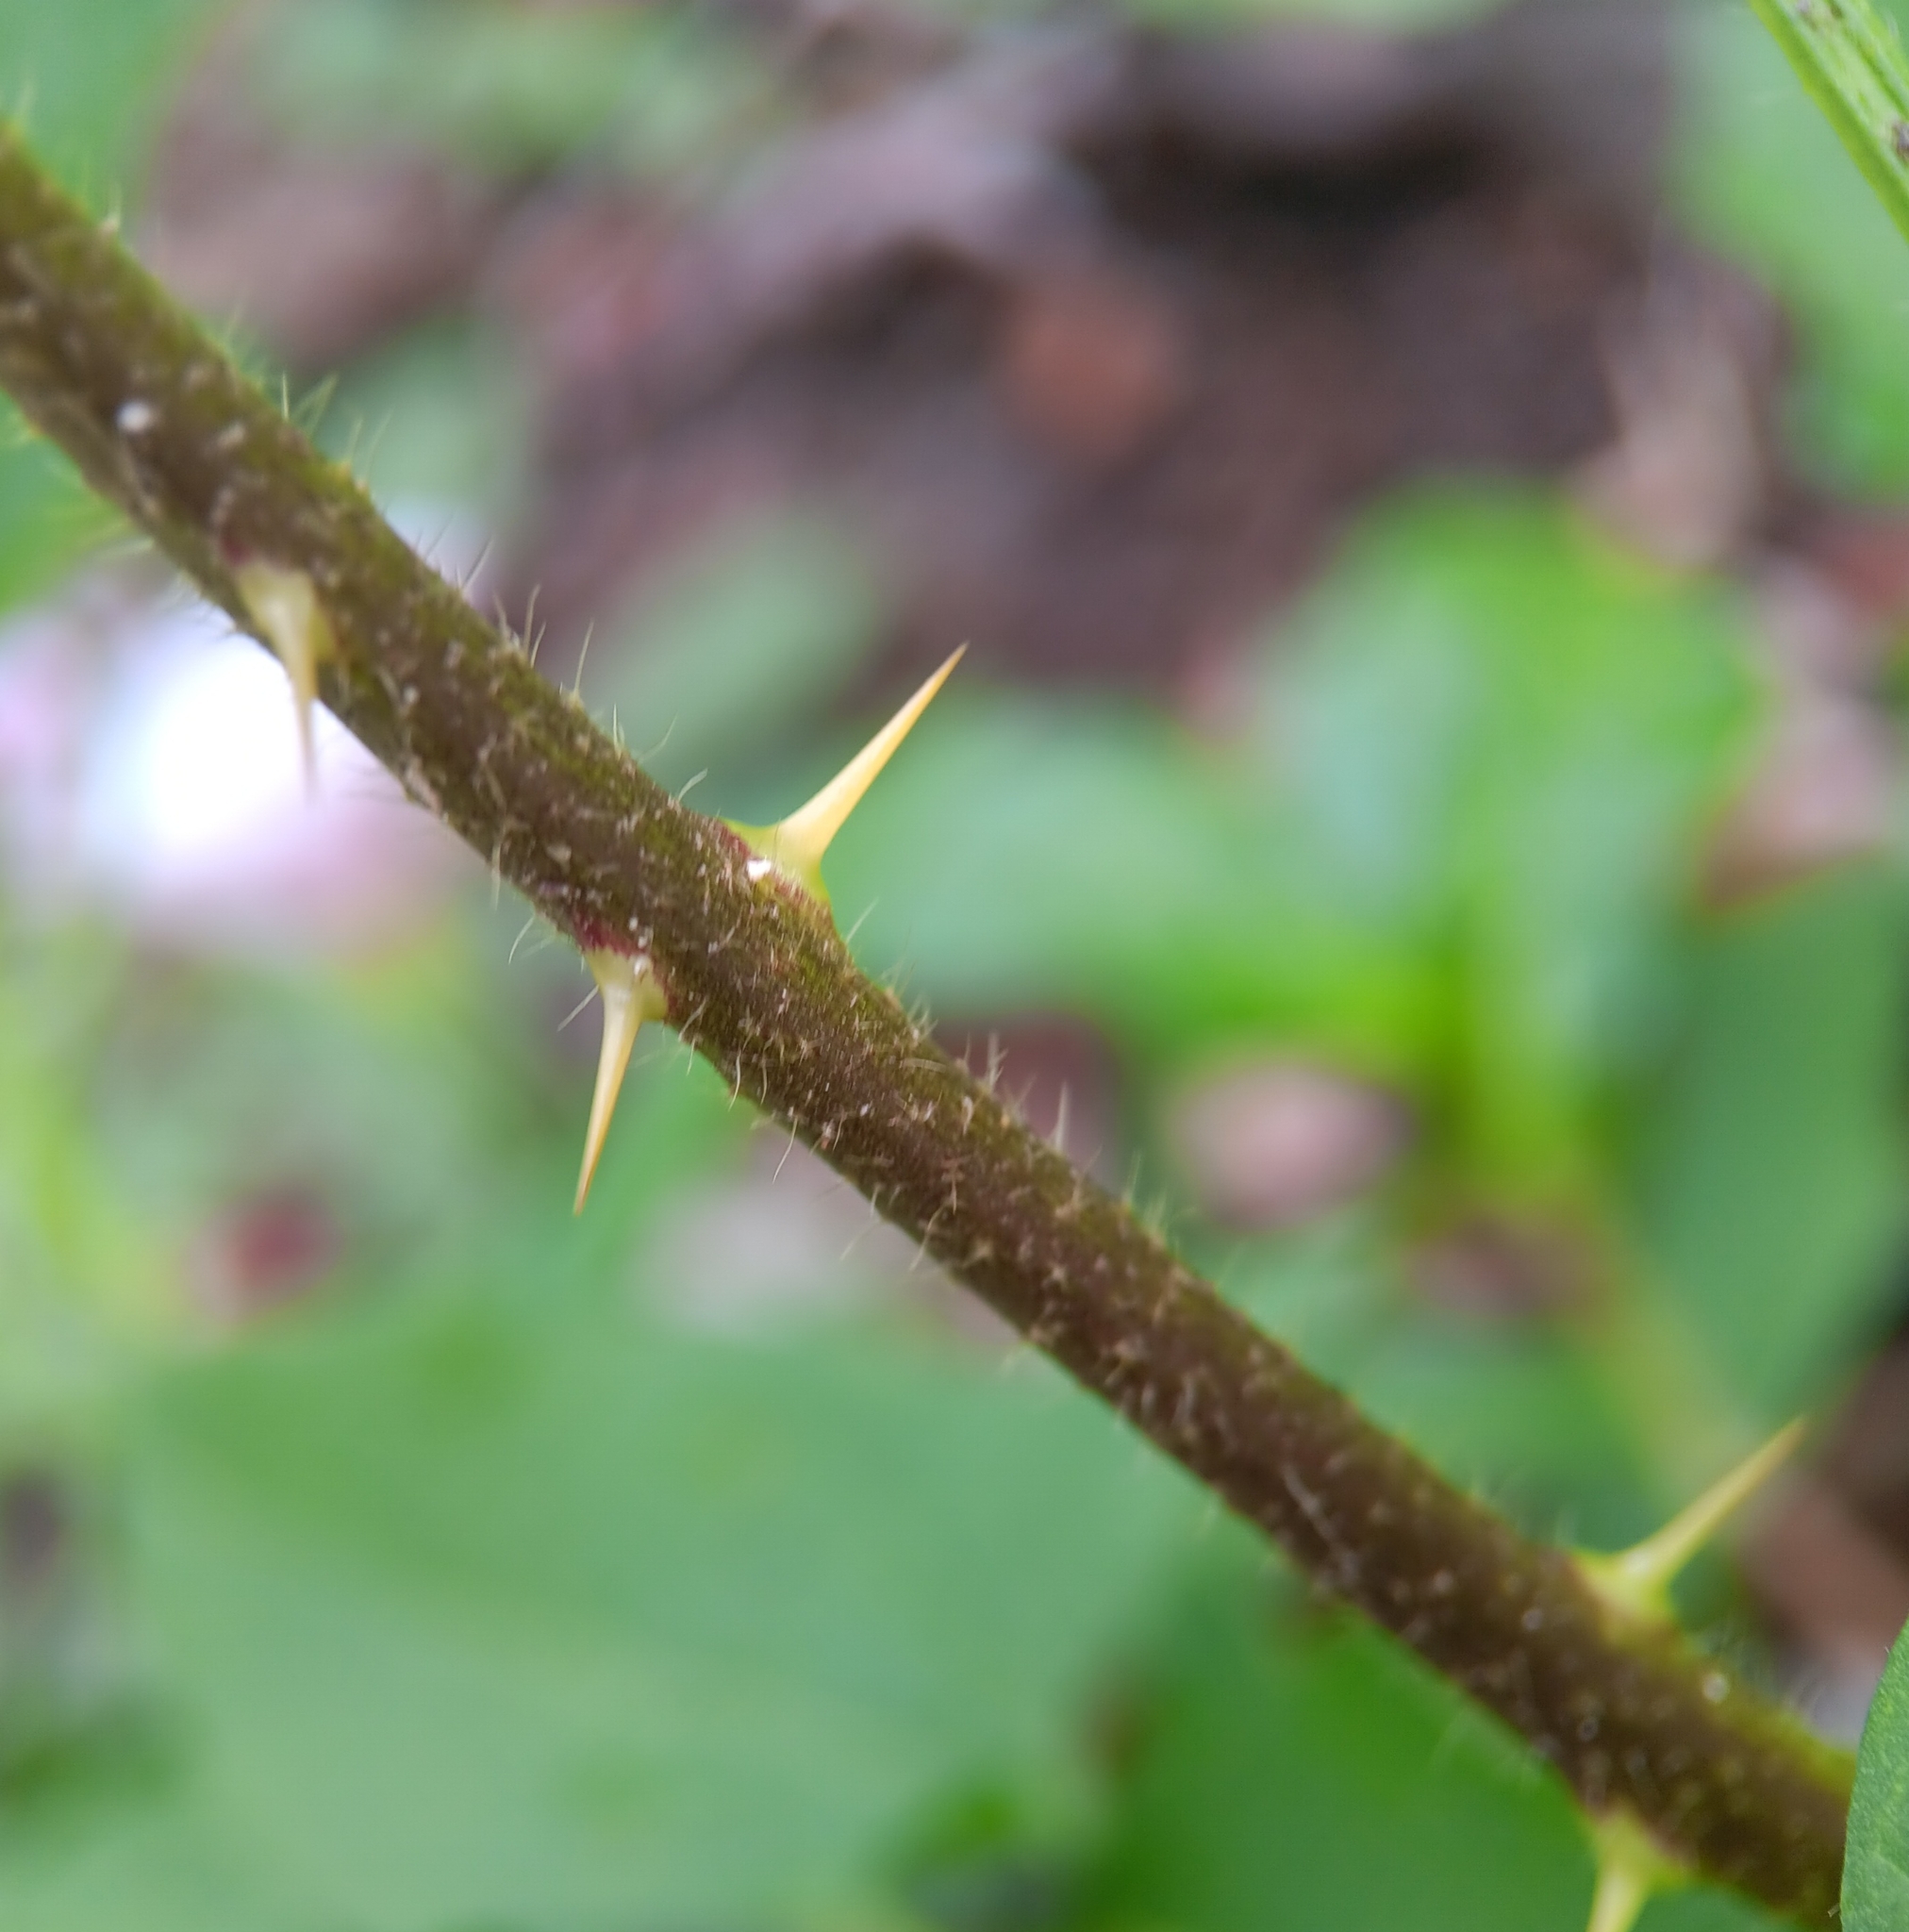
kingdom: Plantae
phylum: Tracheophyta
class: Magnoliopsida
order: Solanales
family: Solanaceae
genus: Solanum
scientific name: Solanum carolinense
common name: Horse-nettle
